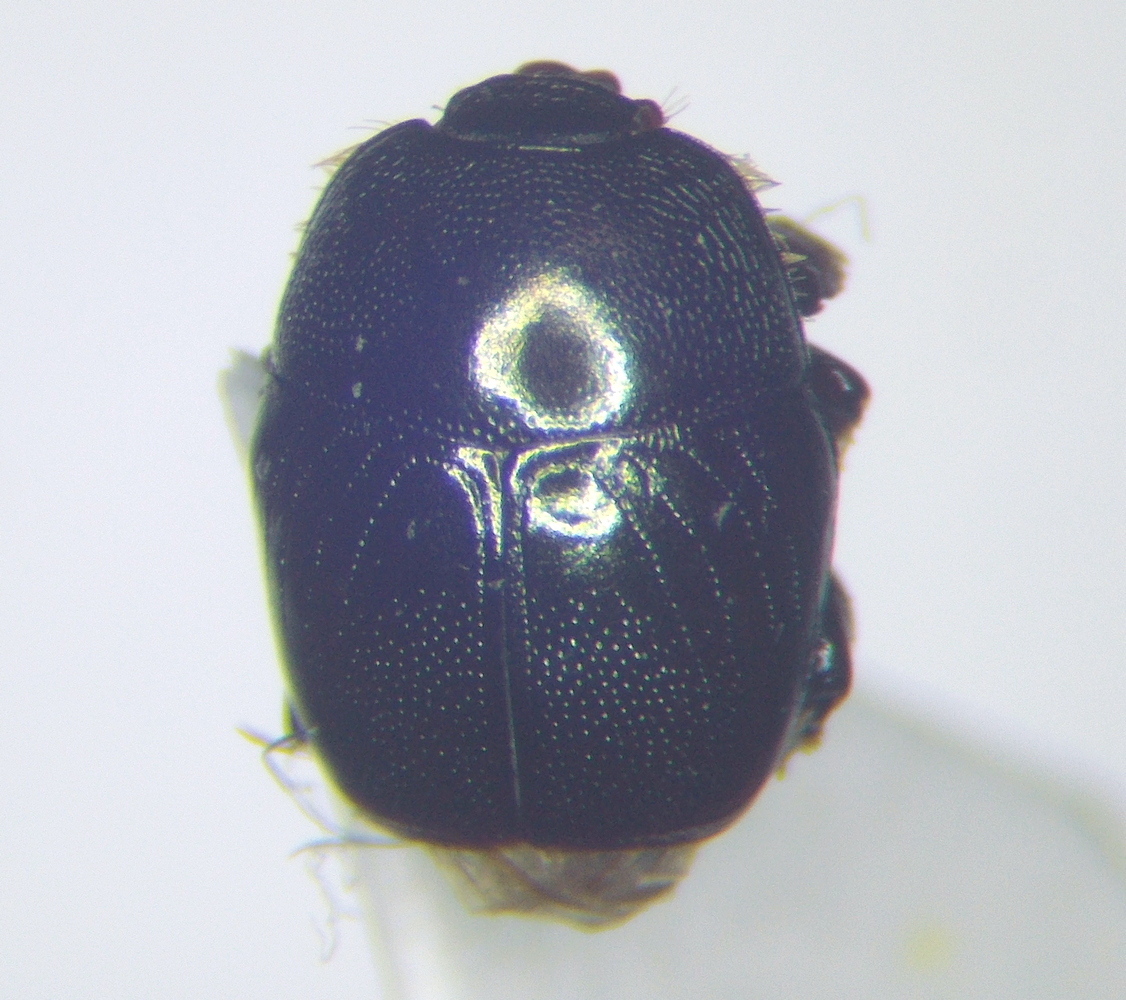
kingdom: Animalia
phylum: Arthropoda
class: Insecta
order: Coleoptera
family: Histeridae
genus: Hypocaccus
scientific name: Hypocaccus atrovirens
